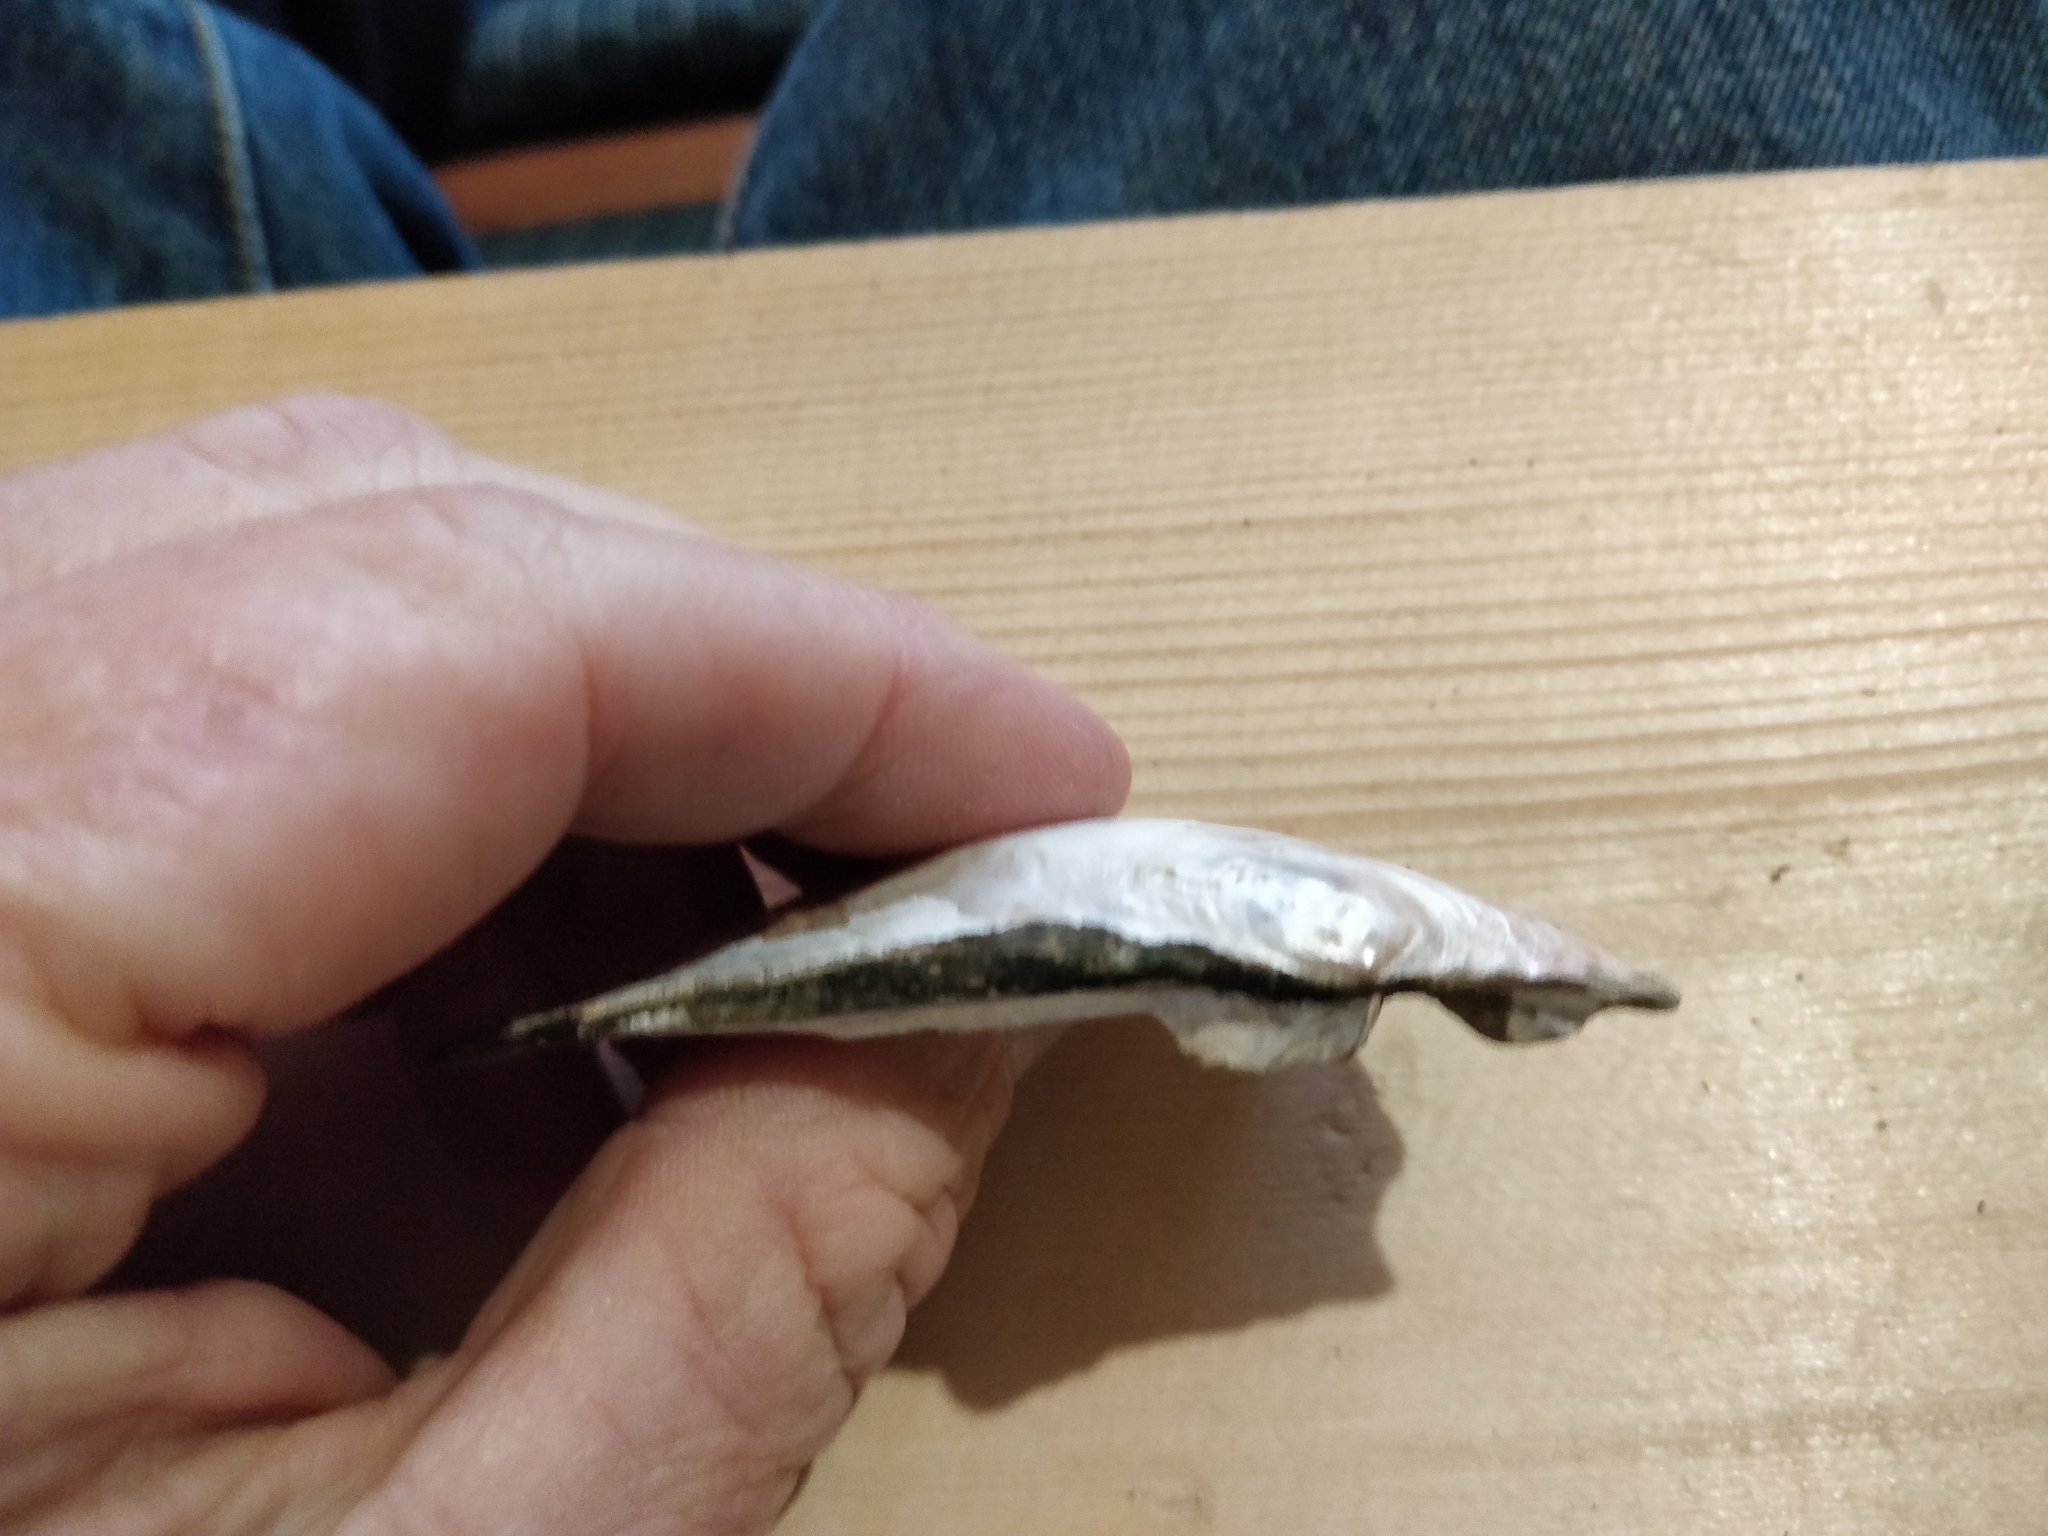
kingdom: Animalia
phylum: Mollusca
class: Bivalvia
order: Unionida
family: Unionidae
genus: Lasmigona
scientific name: Lasmigona complanata
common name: White heelsplitter
